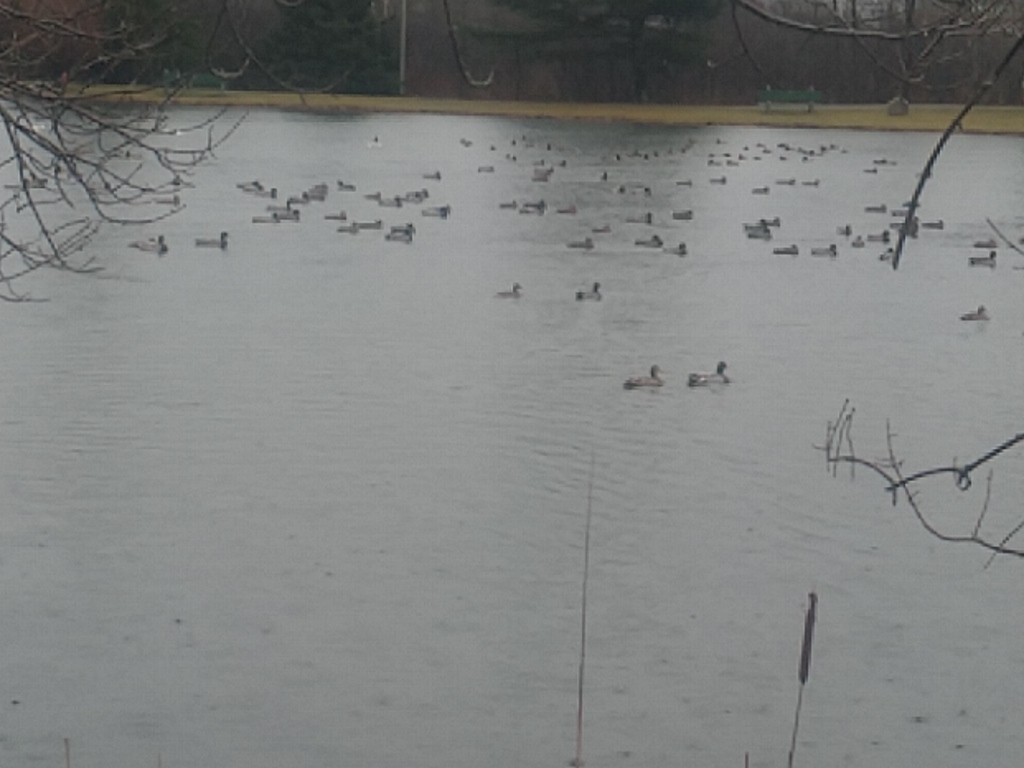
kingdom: Animalia
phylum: Chordata
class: Aves
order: Anseriformes
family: Anatidae
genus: Anas
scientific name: Anas platyrhynchos
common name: Mallard
